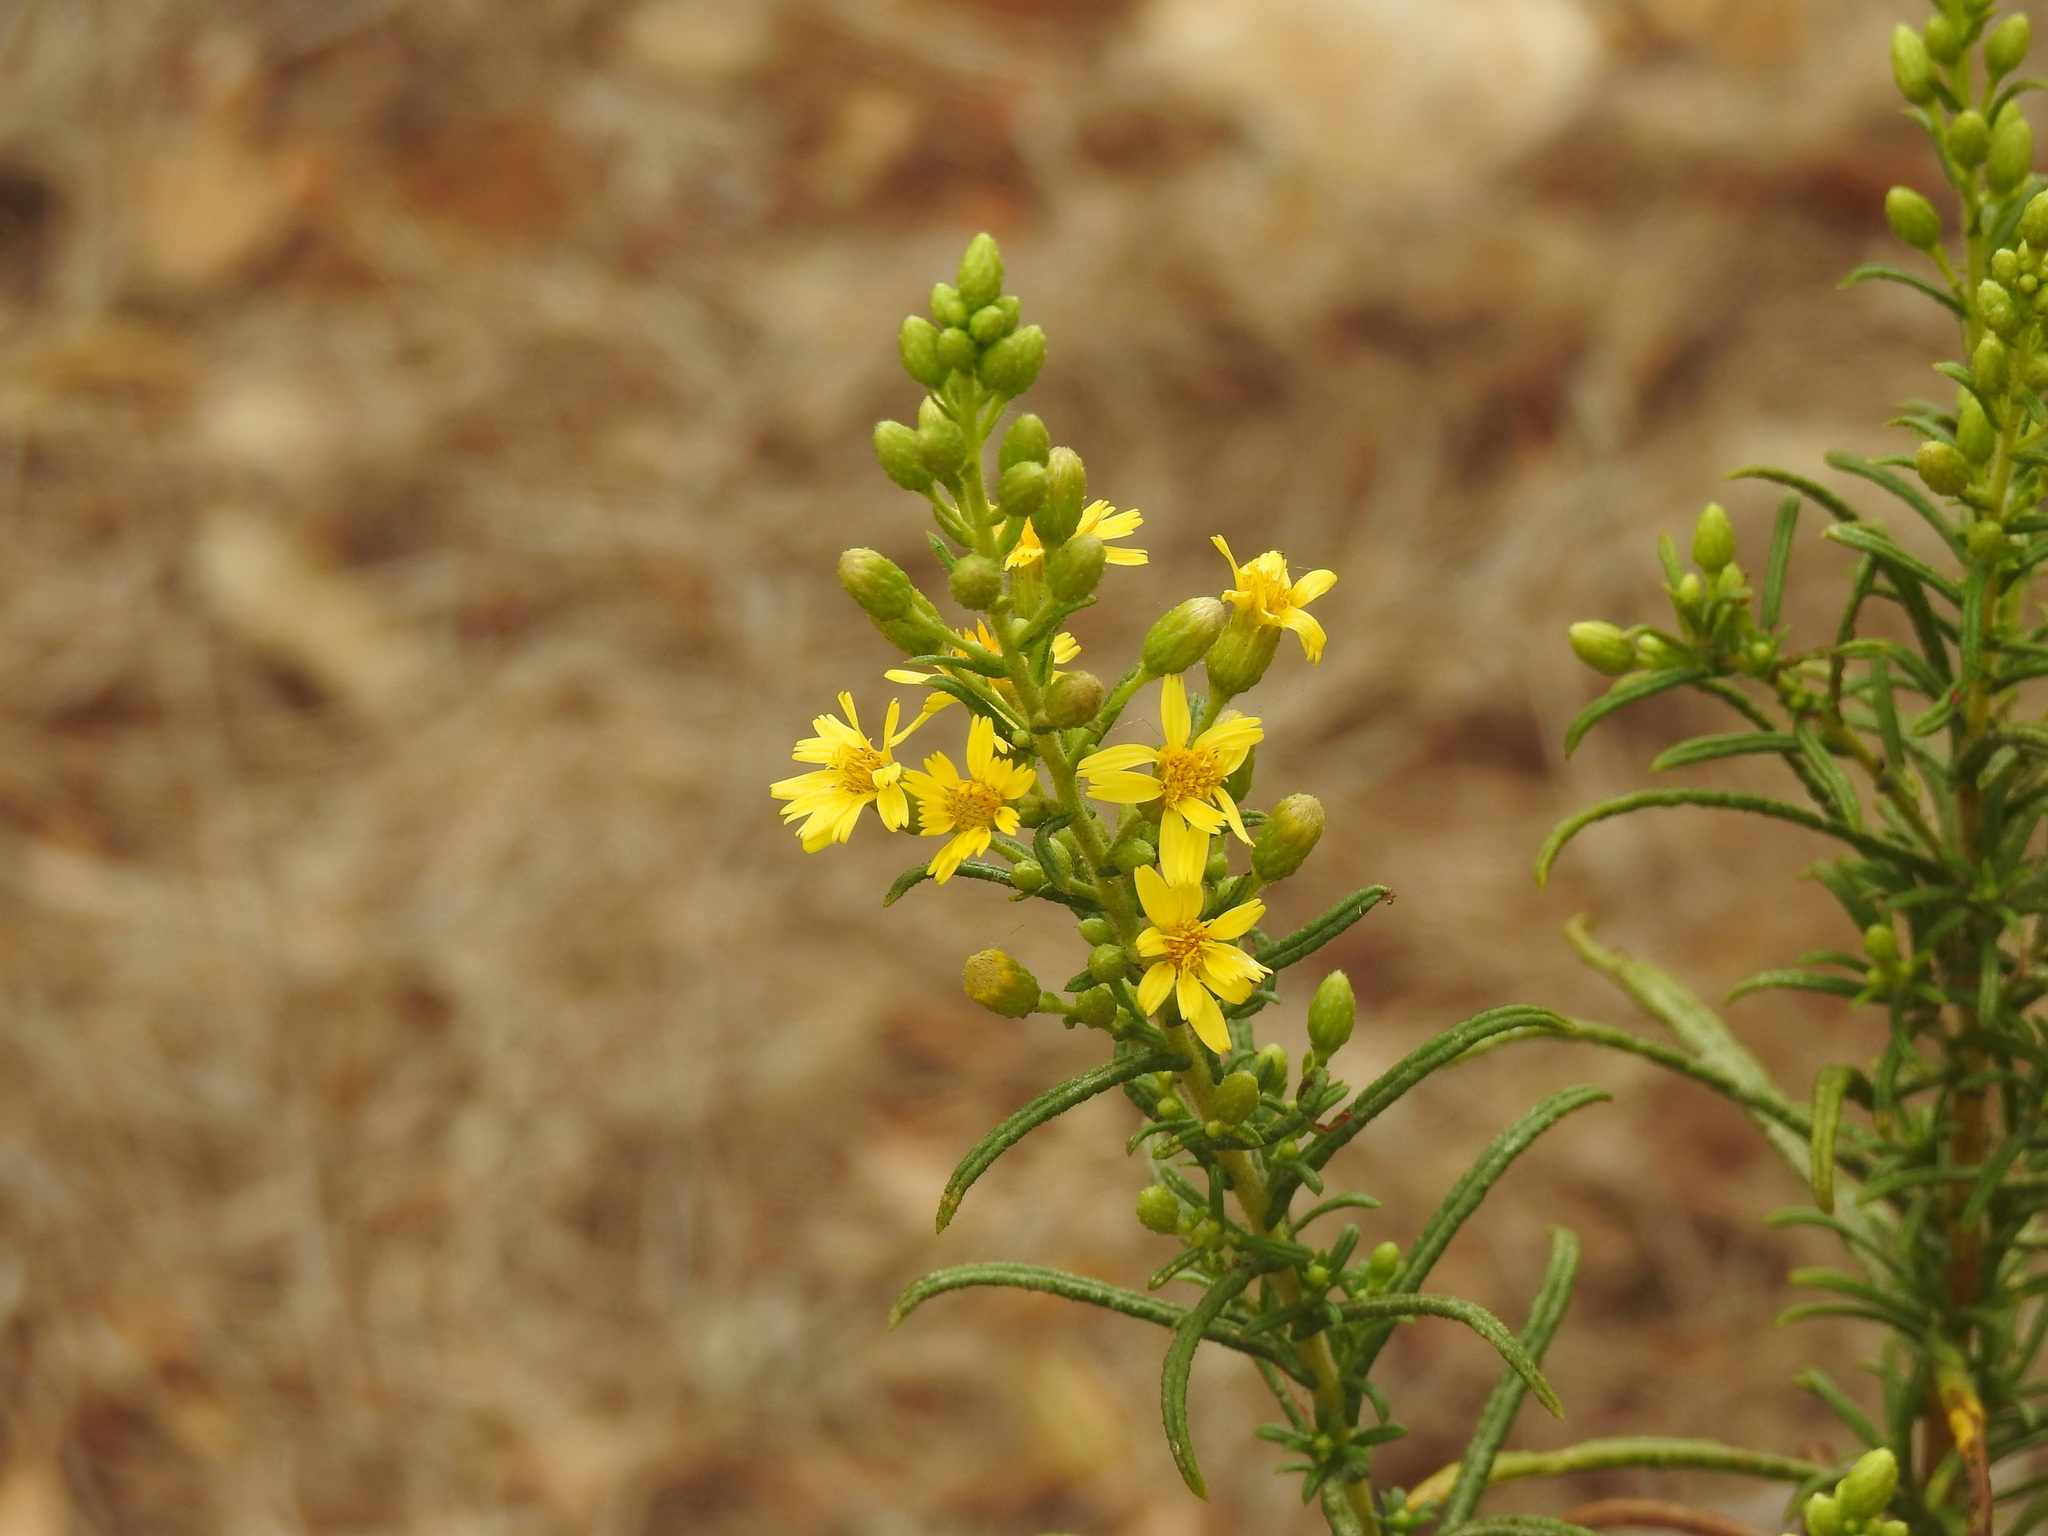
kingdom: Plantae
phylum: Tracheophyta
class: Magnoliopsida
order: Asterales
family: Asteraceae
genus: Dittrichia
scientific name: Dittrichia viscosa
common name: Woody fleabane
